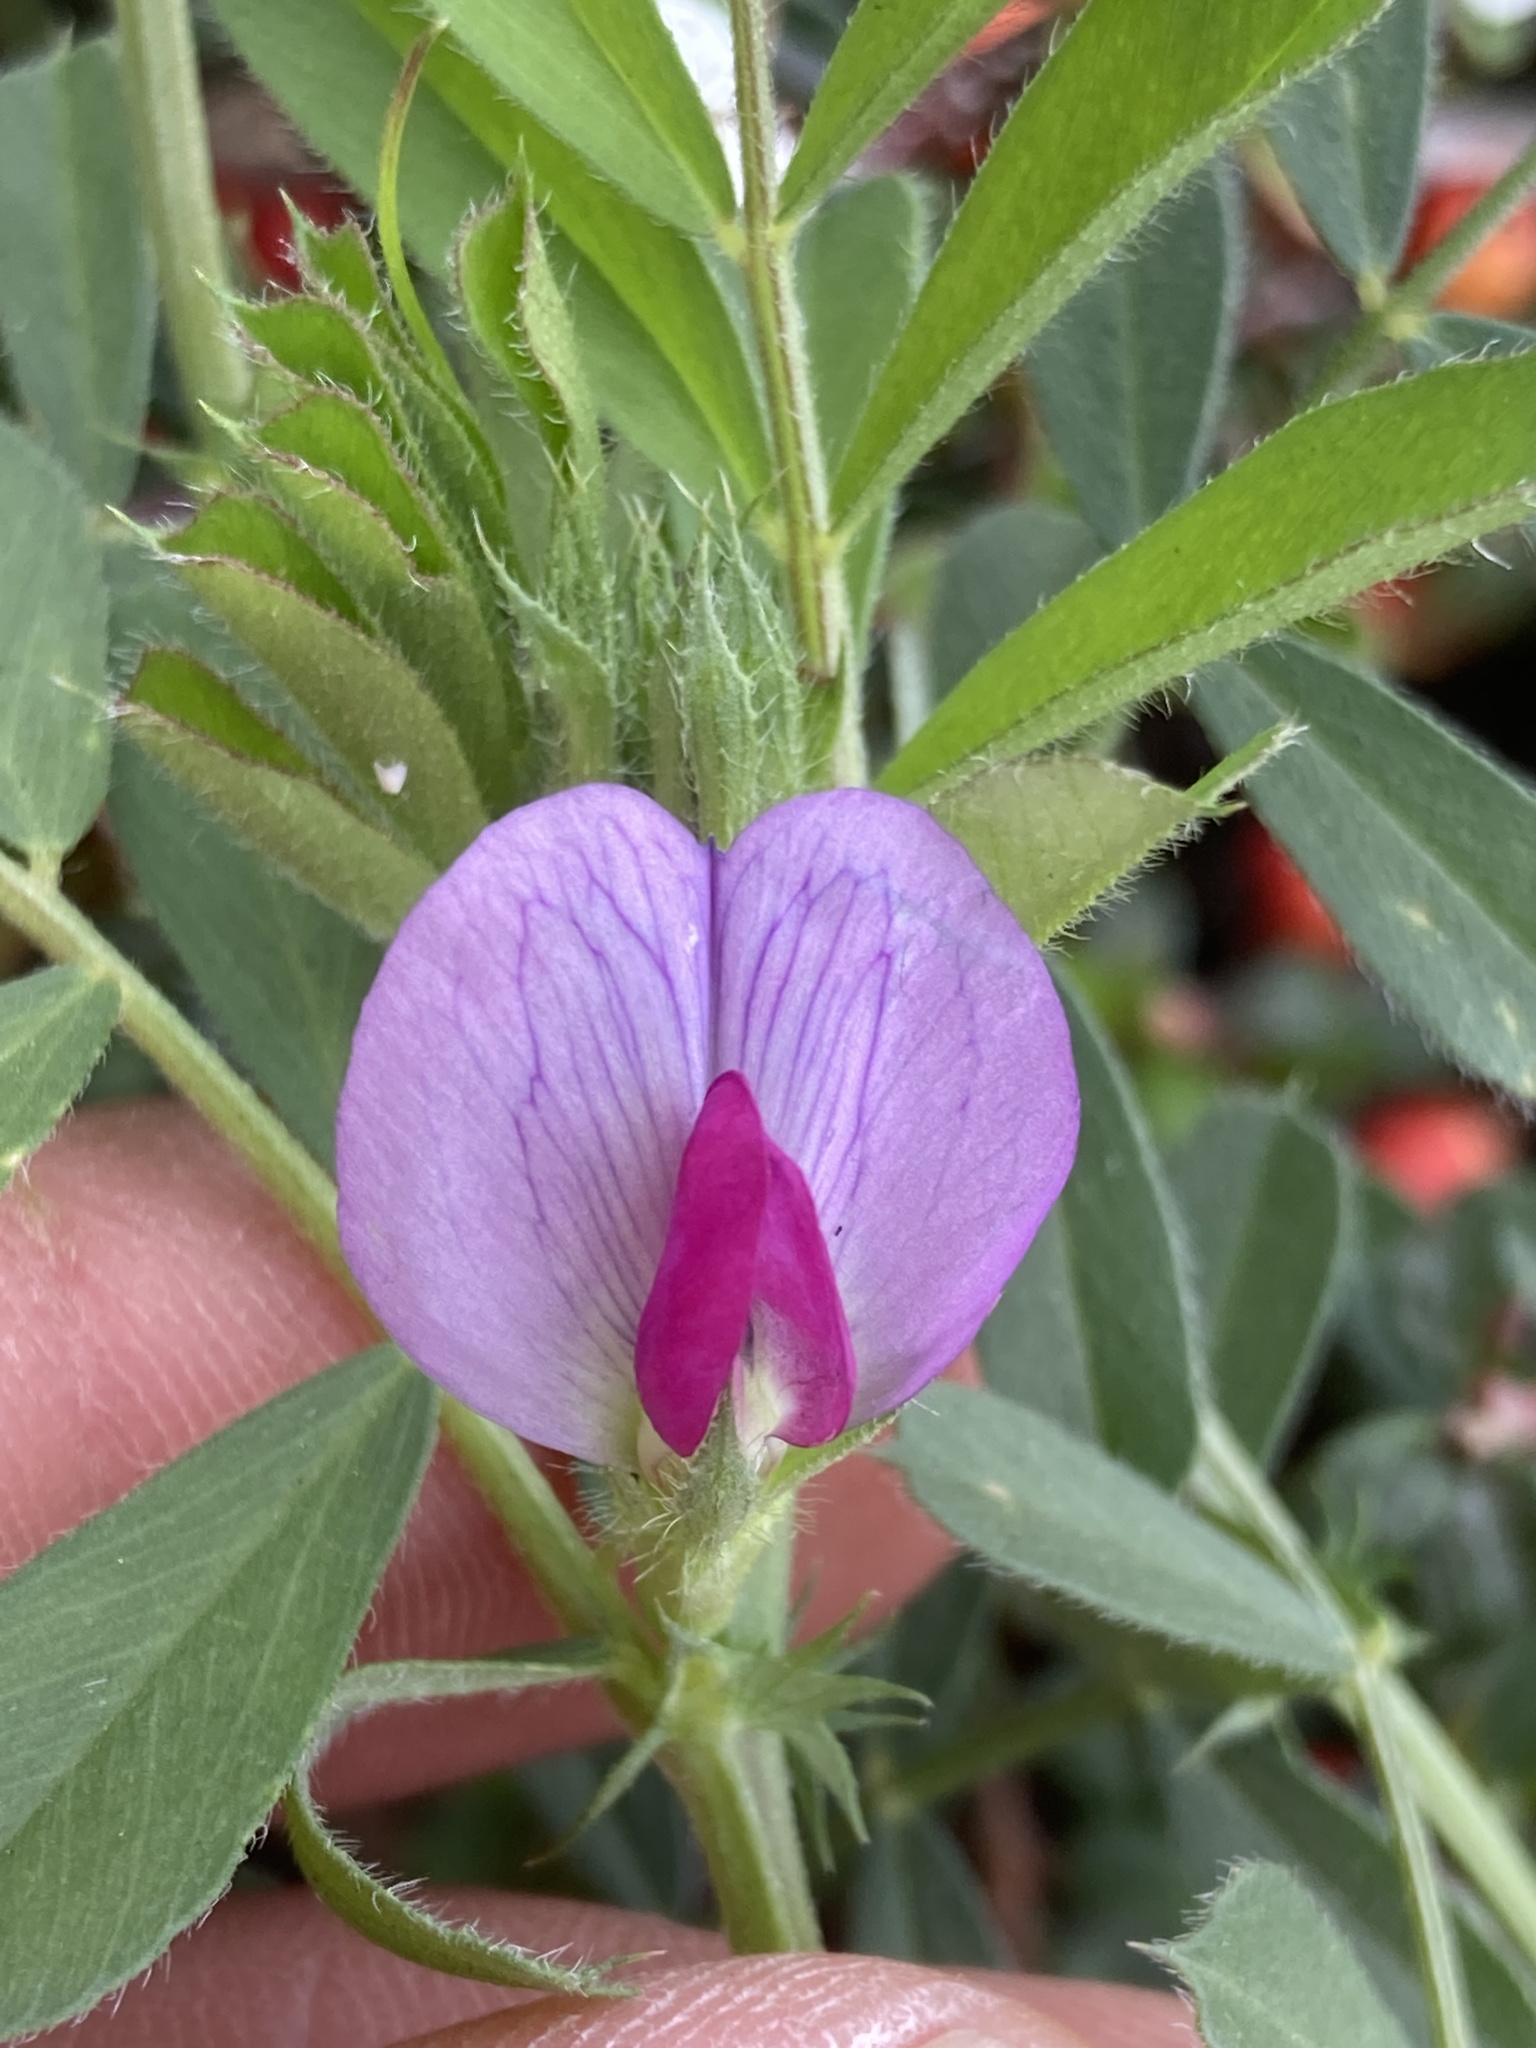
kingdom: Plantae
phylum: Tracheophyta
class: Magnoliopsida
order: Fabales
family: Fabaceae
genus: Vicia
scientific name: Vicia sativa
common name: Garden vetch
